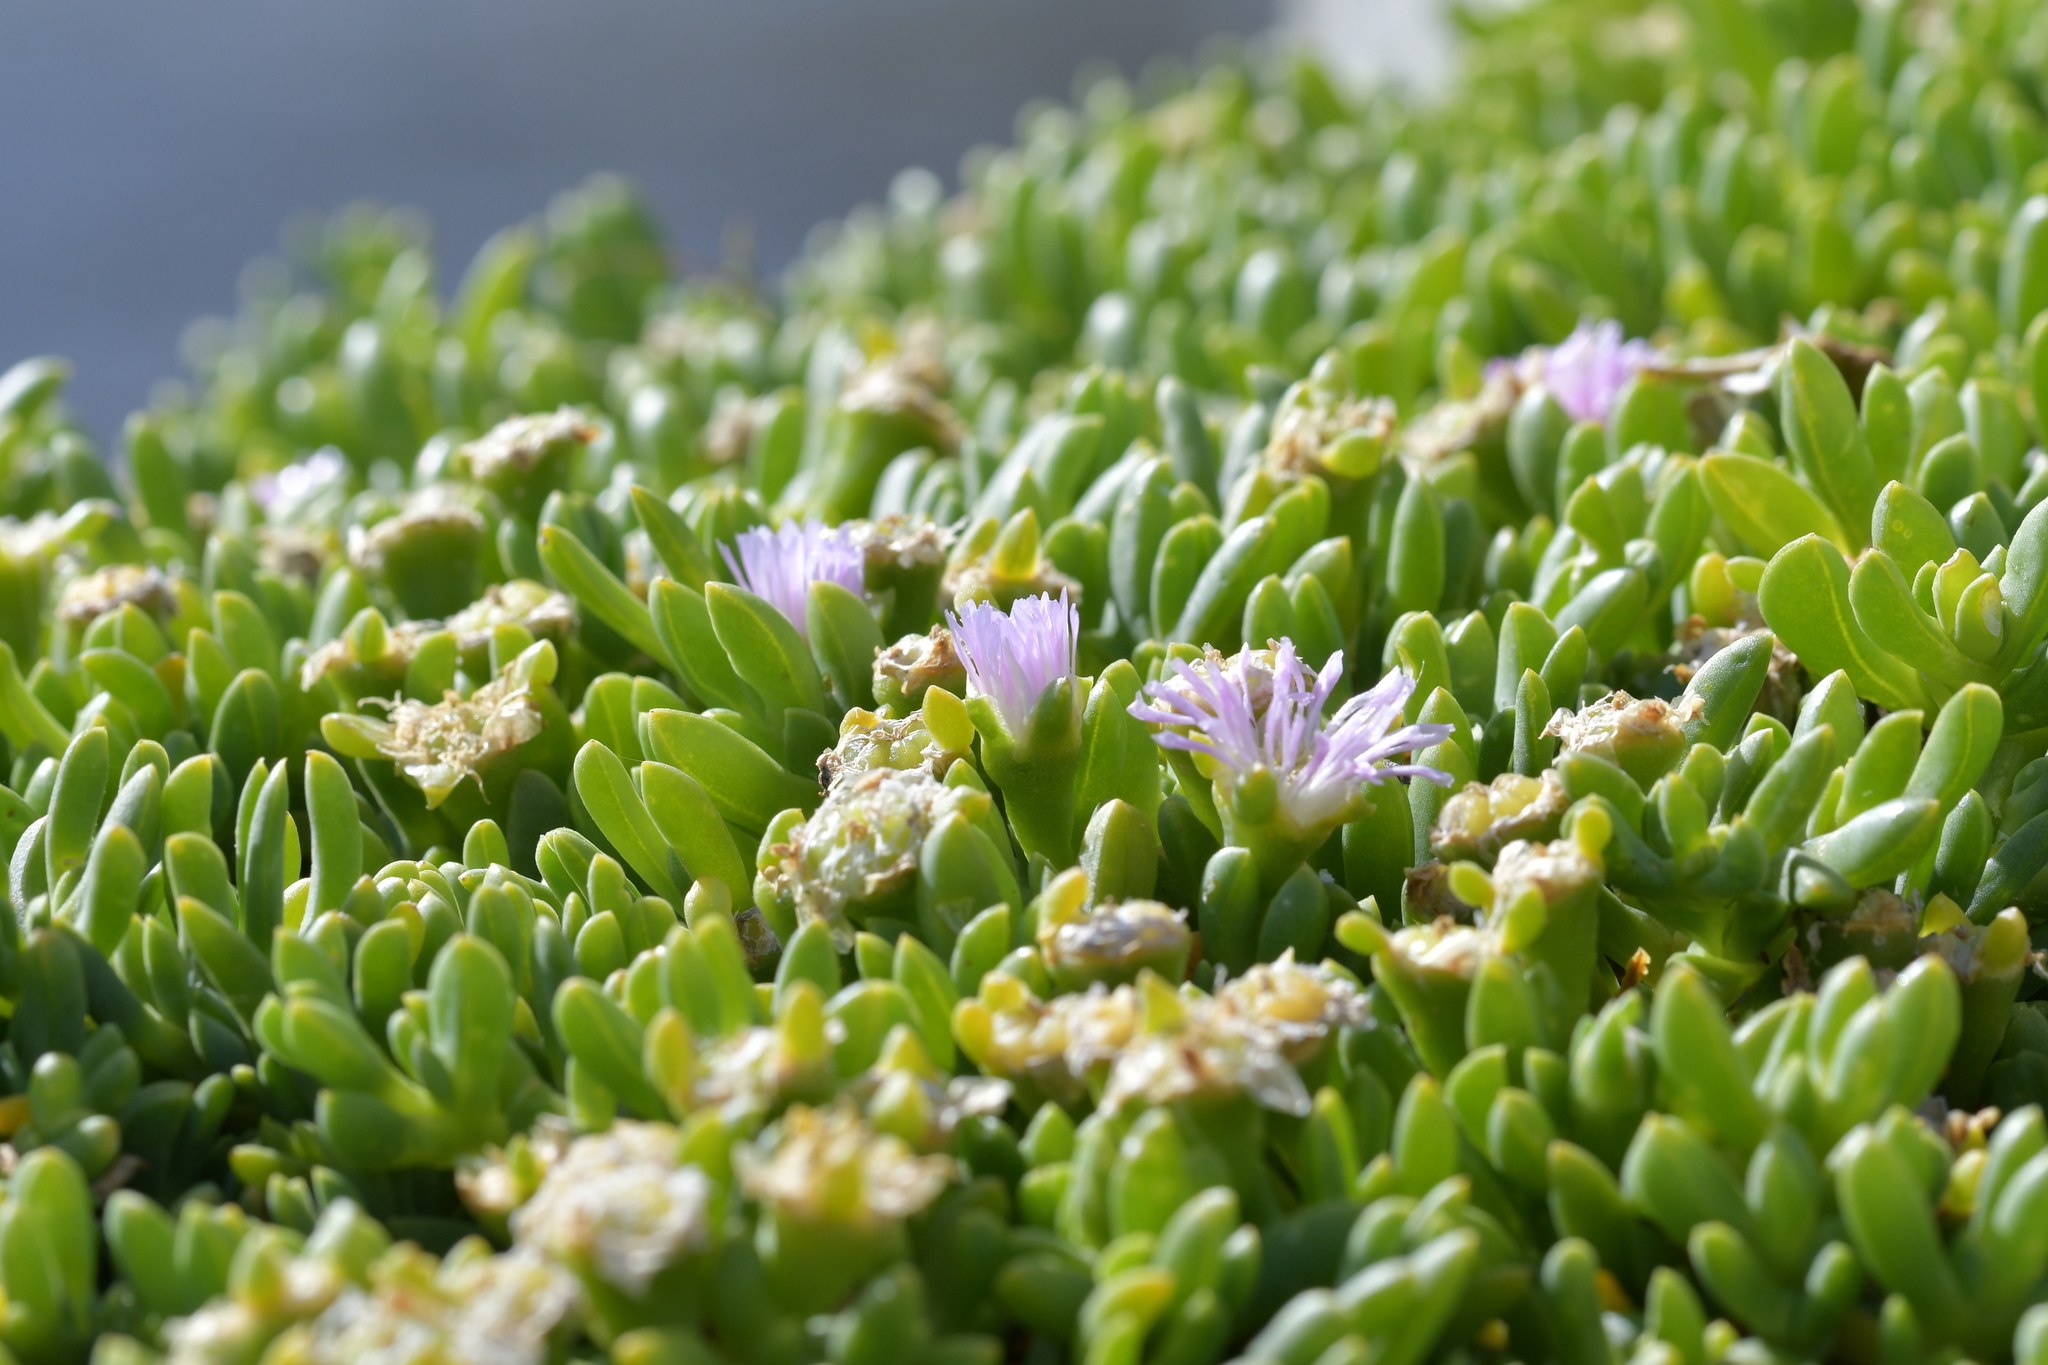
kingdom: Plantae
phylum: Tracheophyta
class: Magnoliopsida
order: Caryophyllales
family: Aizoaceae
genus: Disphyma
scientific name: Disphyma australe
